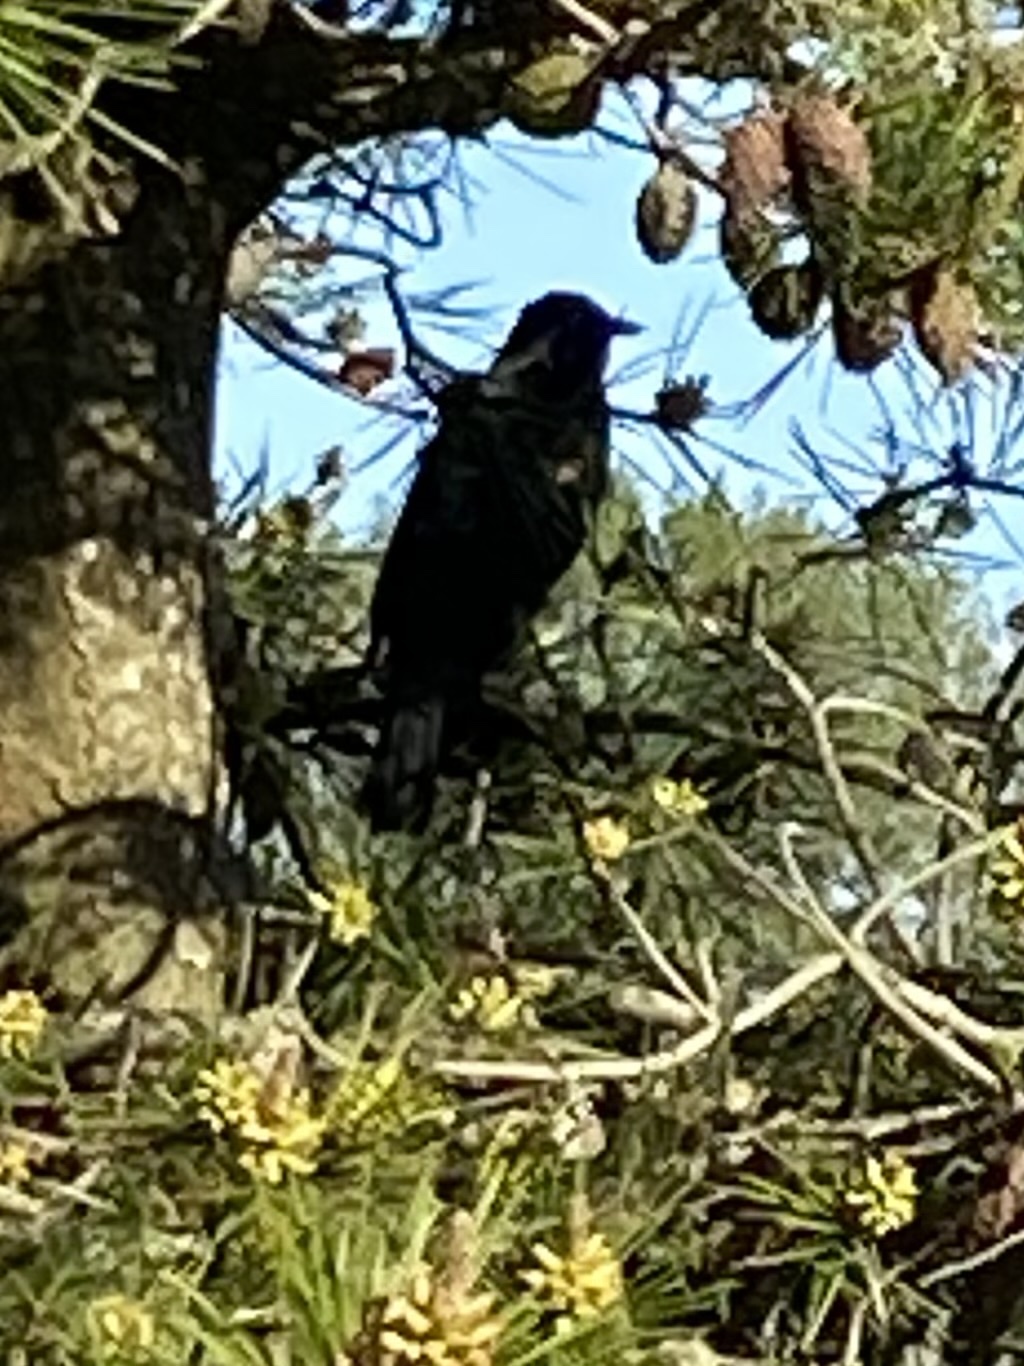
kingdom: Animalia
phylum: Chordata
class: Aves
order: Passeriformes
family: Icteridae
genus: Agelaius
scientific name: Agelaius phoeniceus
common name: Red-winged blackbird
